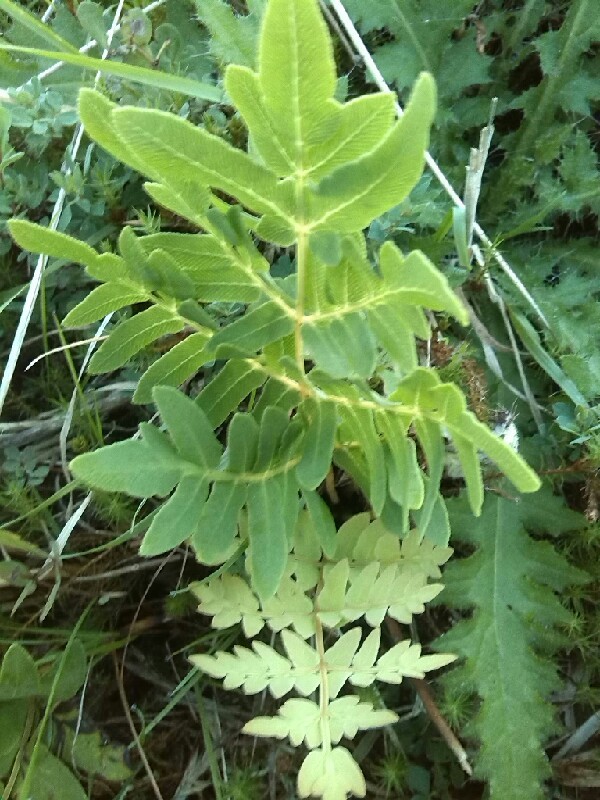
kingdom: Plantae
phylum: Tracheophyta
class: Polypodiopsida
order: Osmundales
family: Osmundaceae
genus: Osmunda
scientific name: Osmunda regalis
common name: Royal fern
